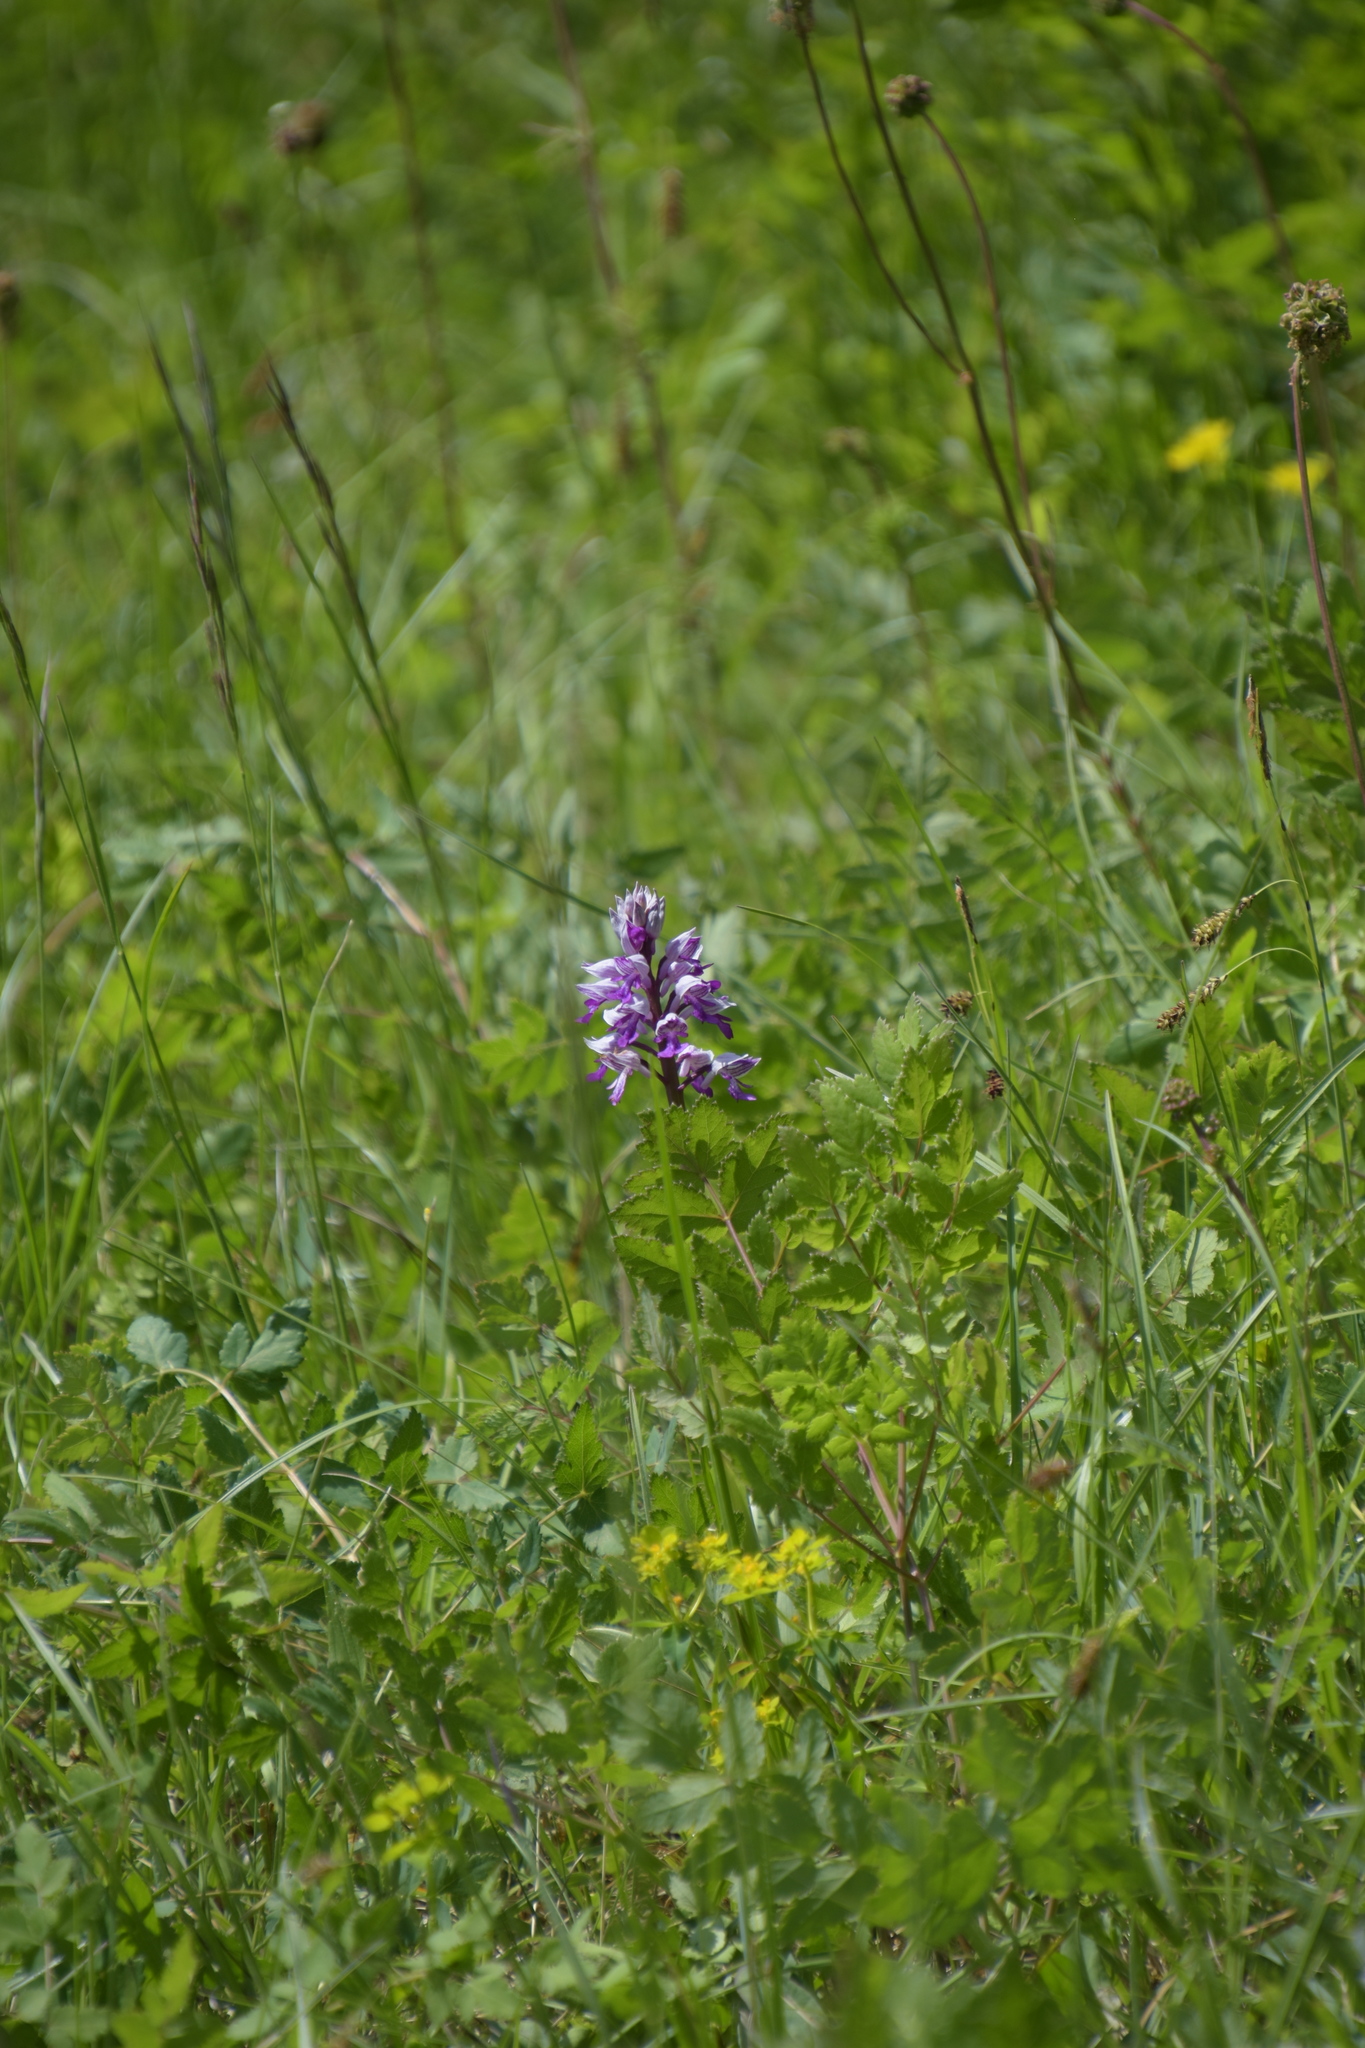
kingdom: Plantae
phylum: Tracheophyta
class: Liliopsida
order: Asparagales
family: Orchidaceae
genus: Orchis
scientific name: Orchis militaris
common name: Military orchid
